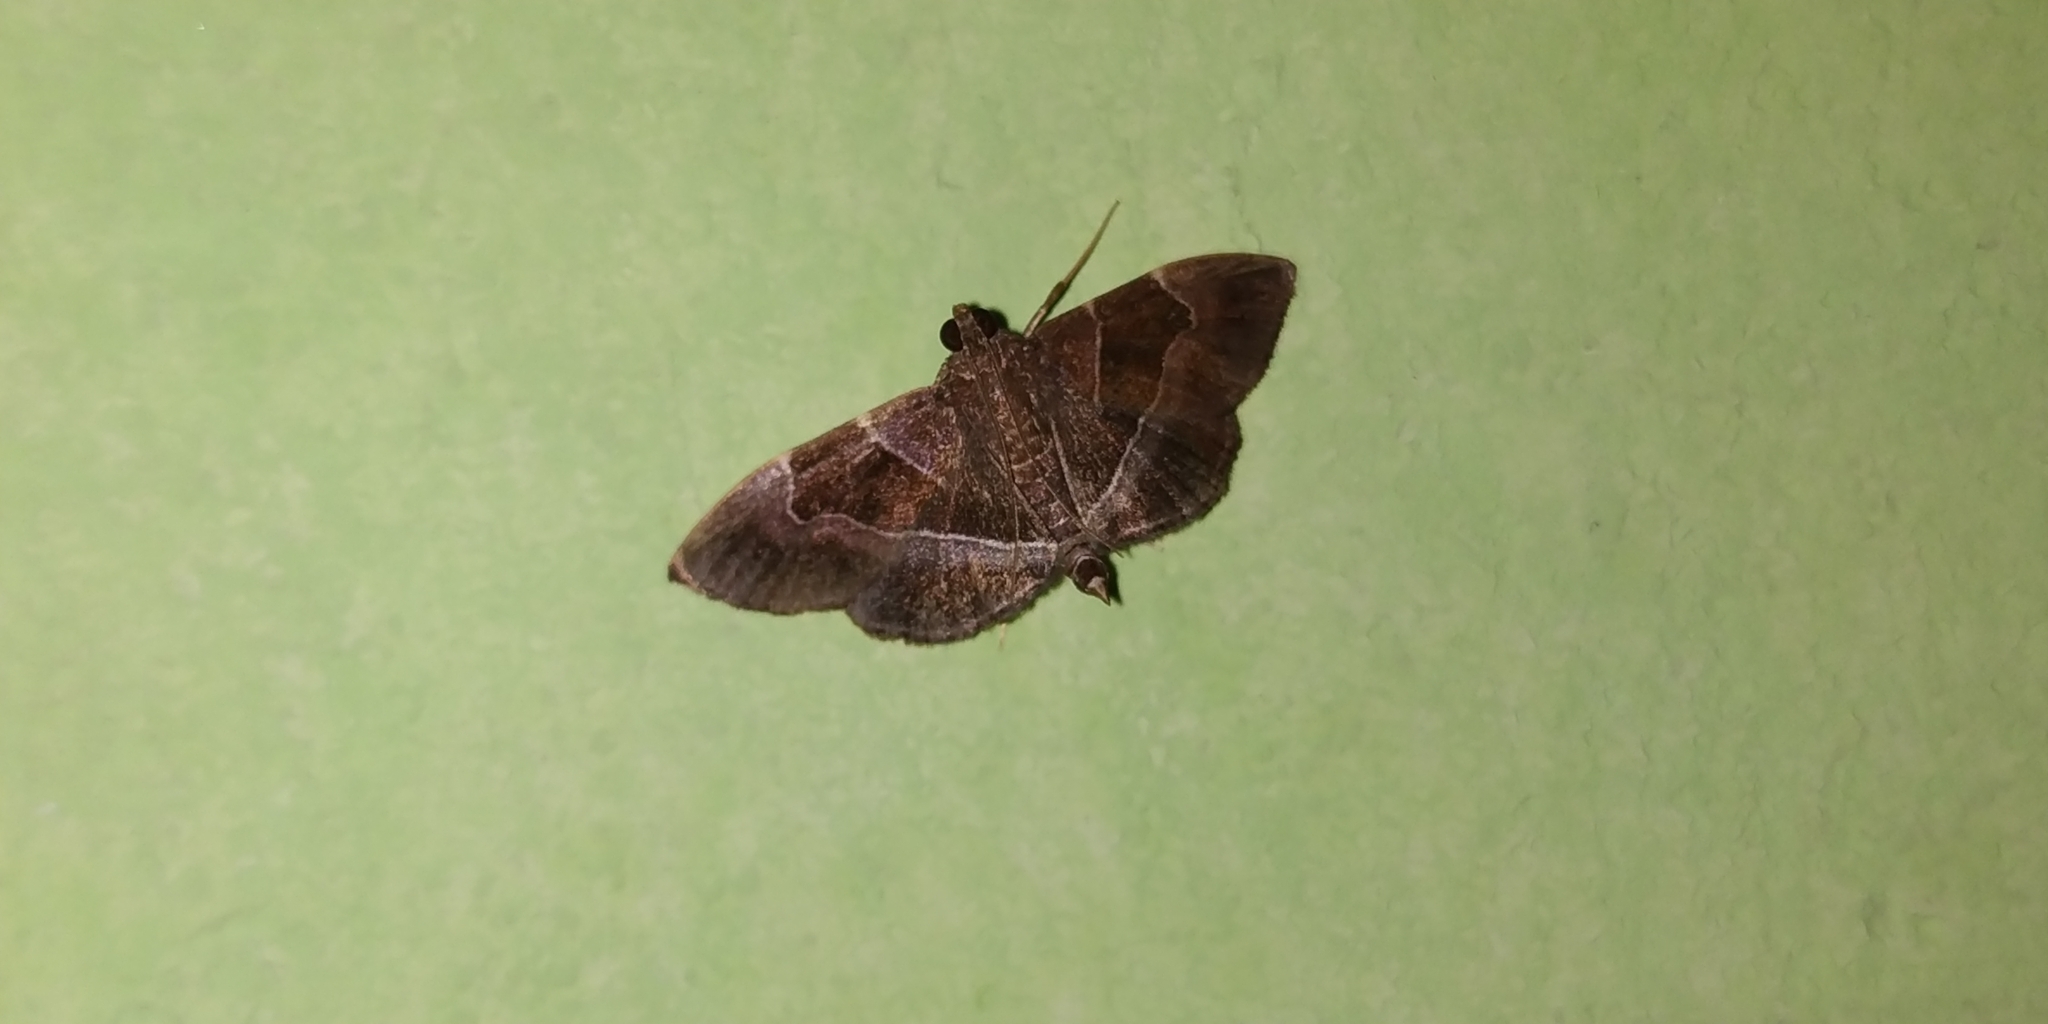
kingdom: Animalia
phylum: Arthropoda
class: Insecta
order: Lepidoptera
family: Crambidae
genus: Lamprosema
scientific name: Lamprosema
